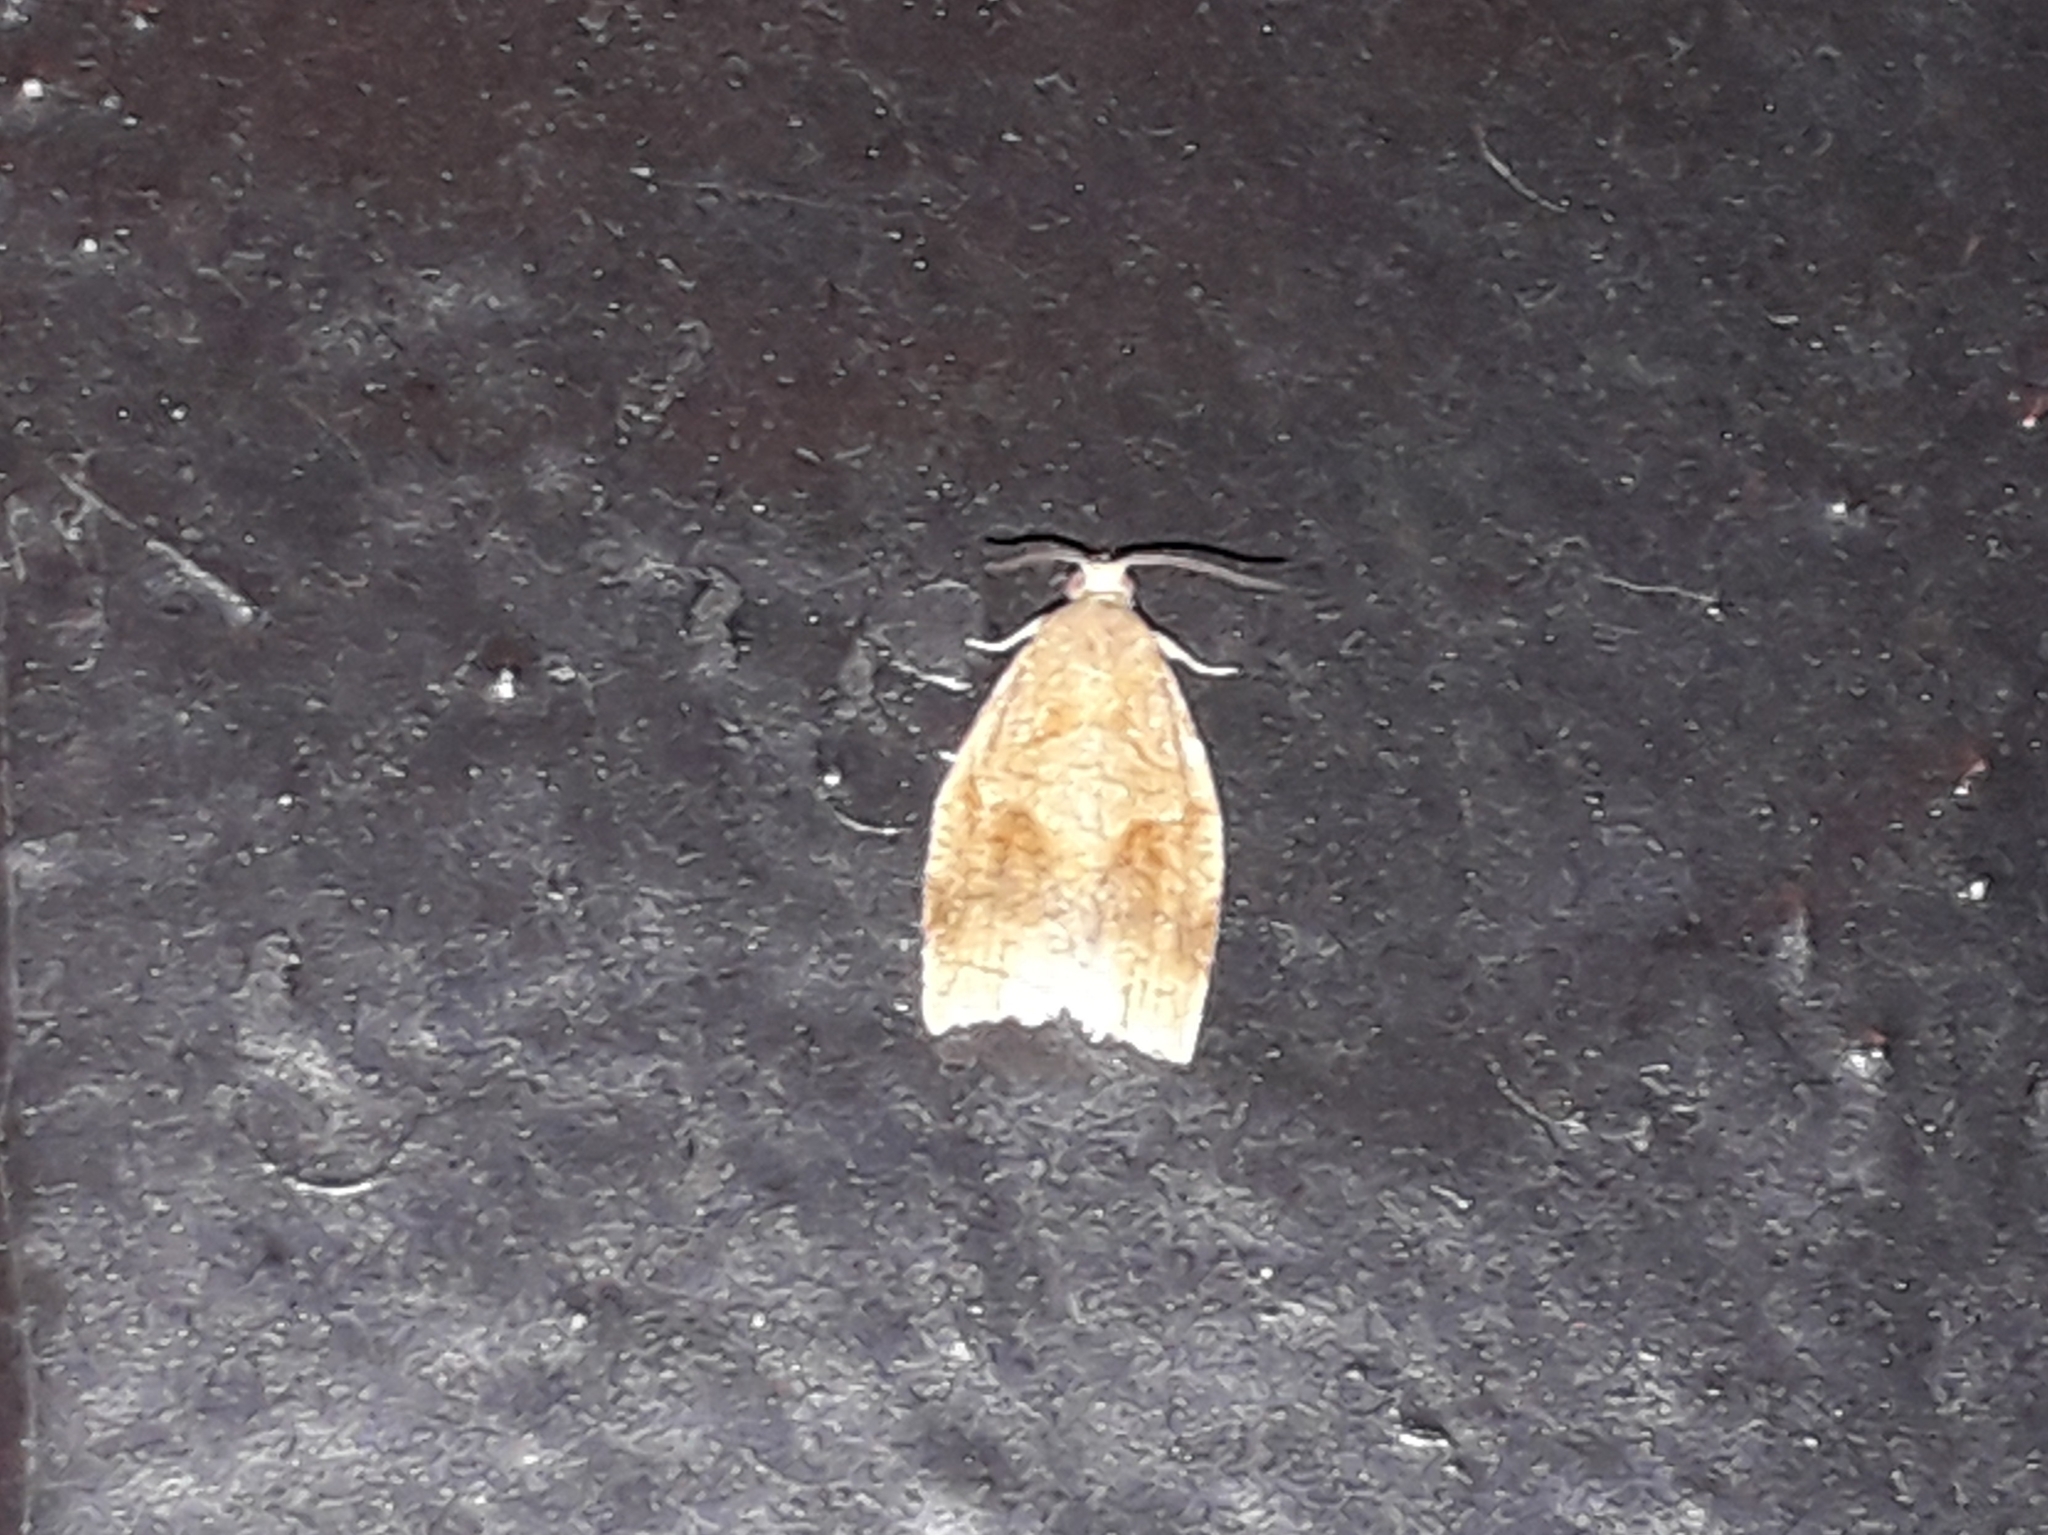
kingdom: Animalia
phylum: Arthropoda
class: Insecta
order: Lepidoptera
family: Tortricidae
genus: Archips
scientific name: Archips rosana
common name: Rose tortrix
